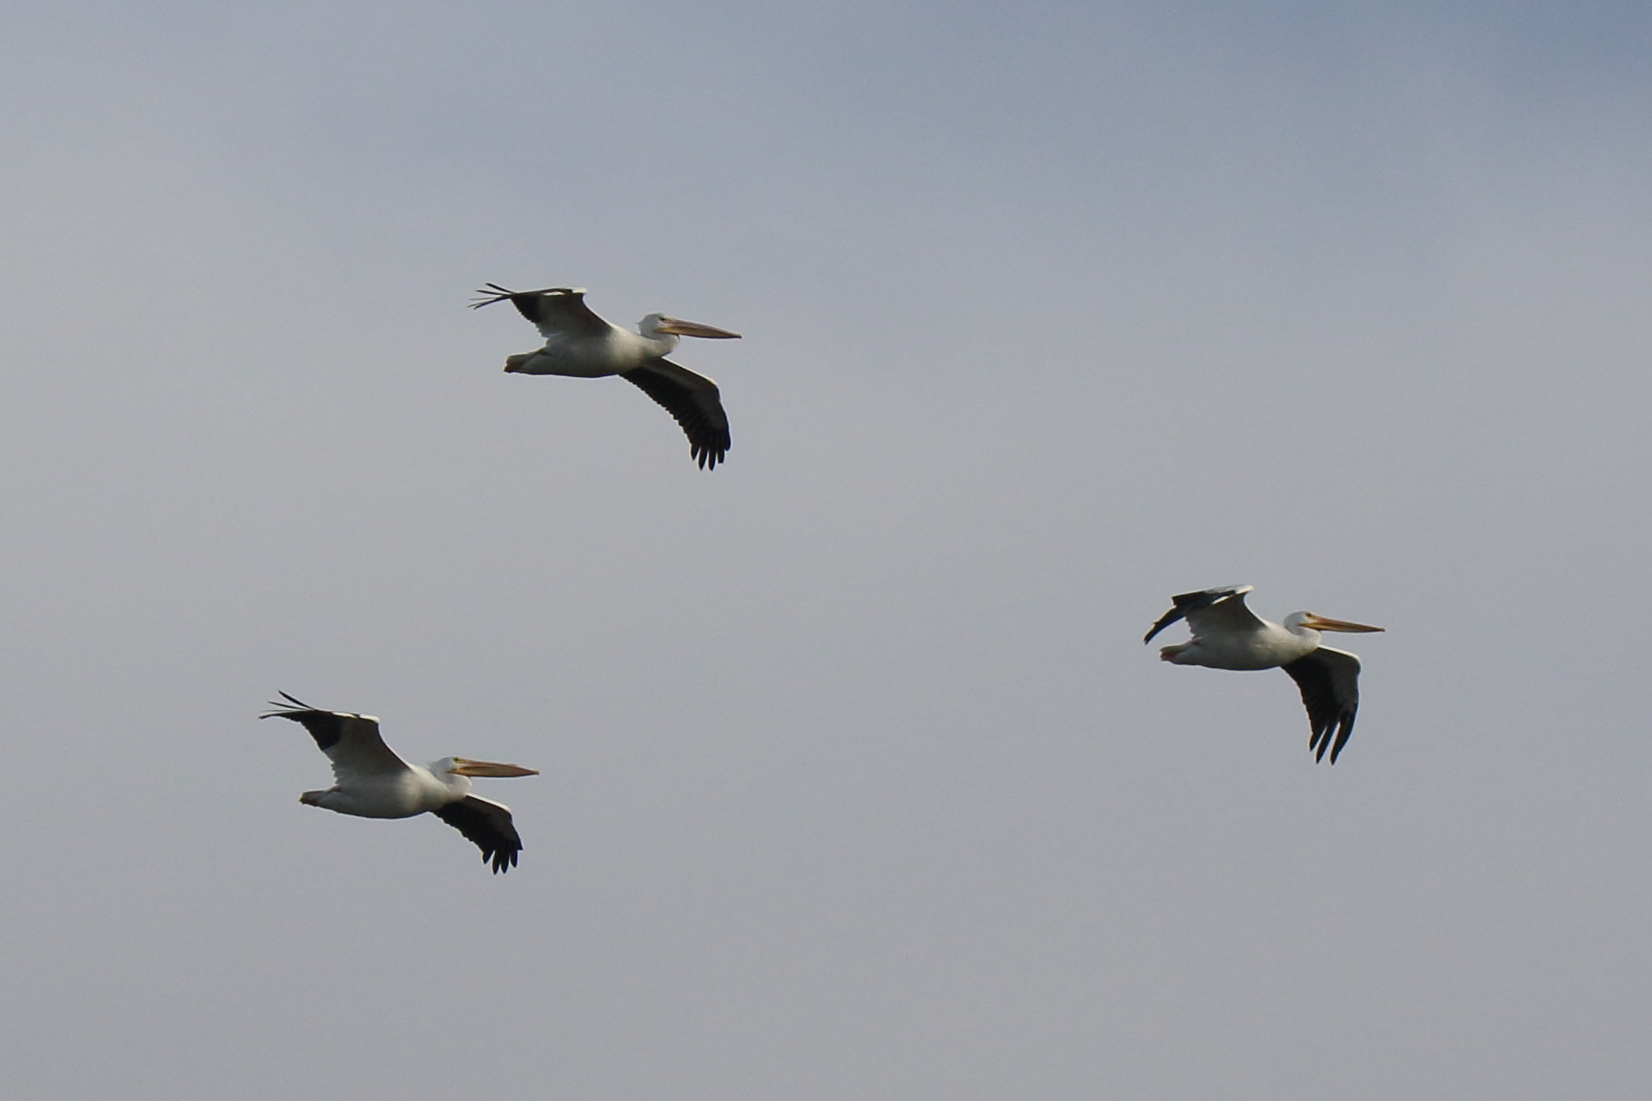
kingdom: Animalia
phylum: Chordata
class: Aves
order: Pelecaniformes
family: Pelecanidae
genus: Pelecanus
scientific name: Pelecanus erythrorhynchos
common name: American white pelican
